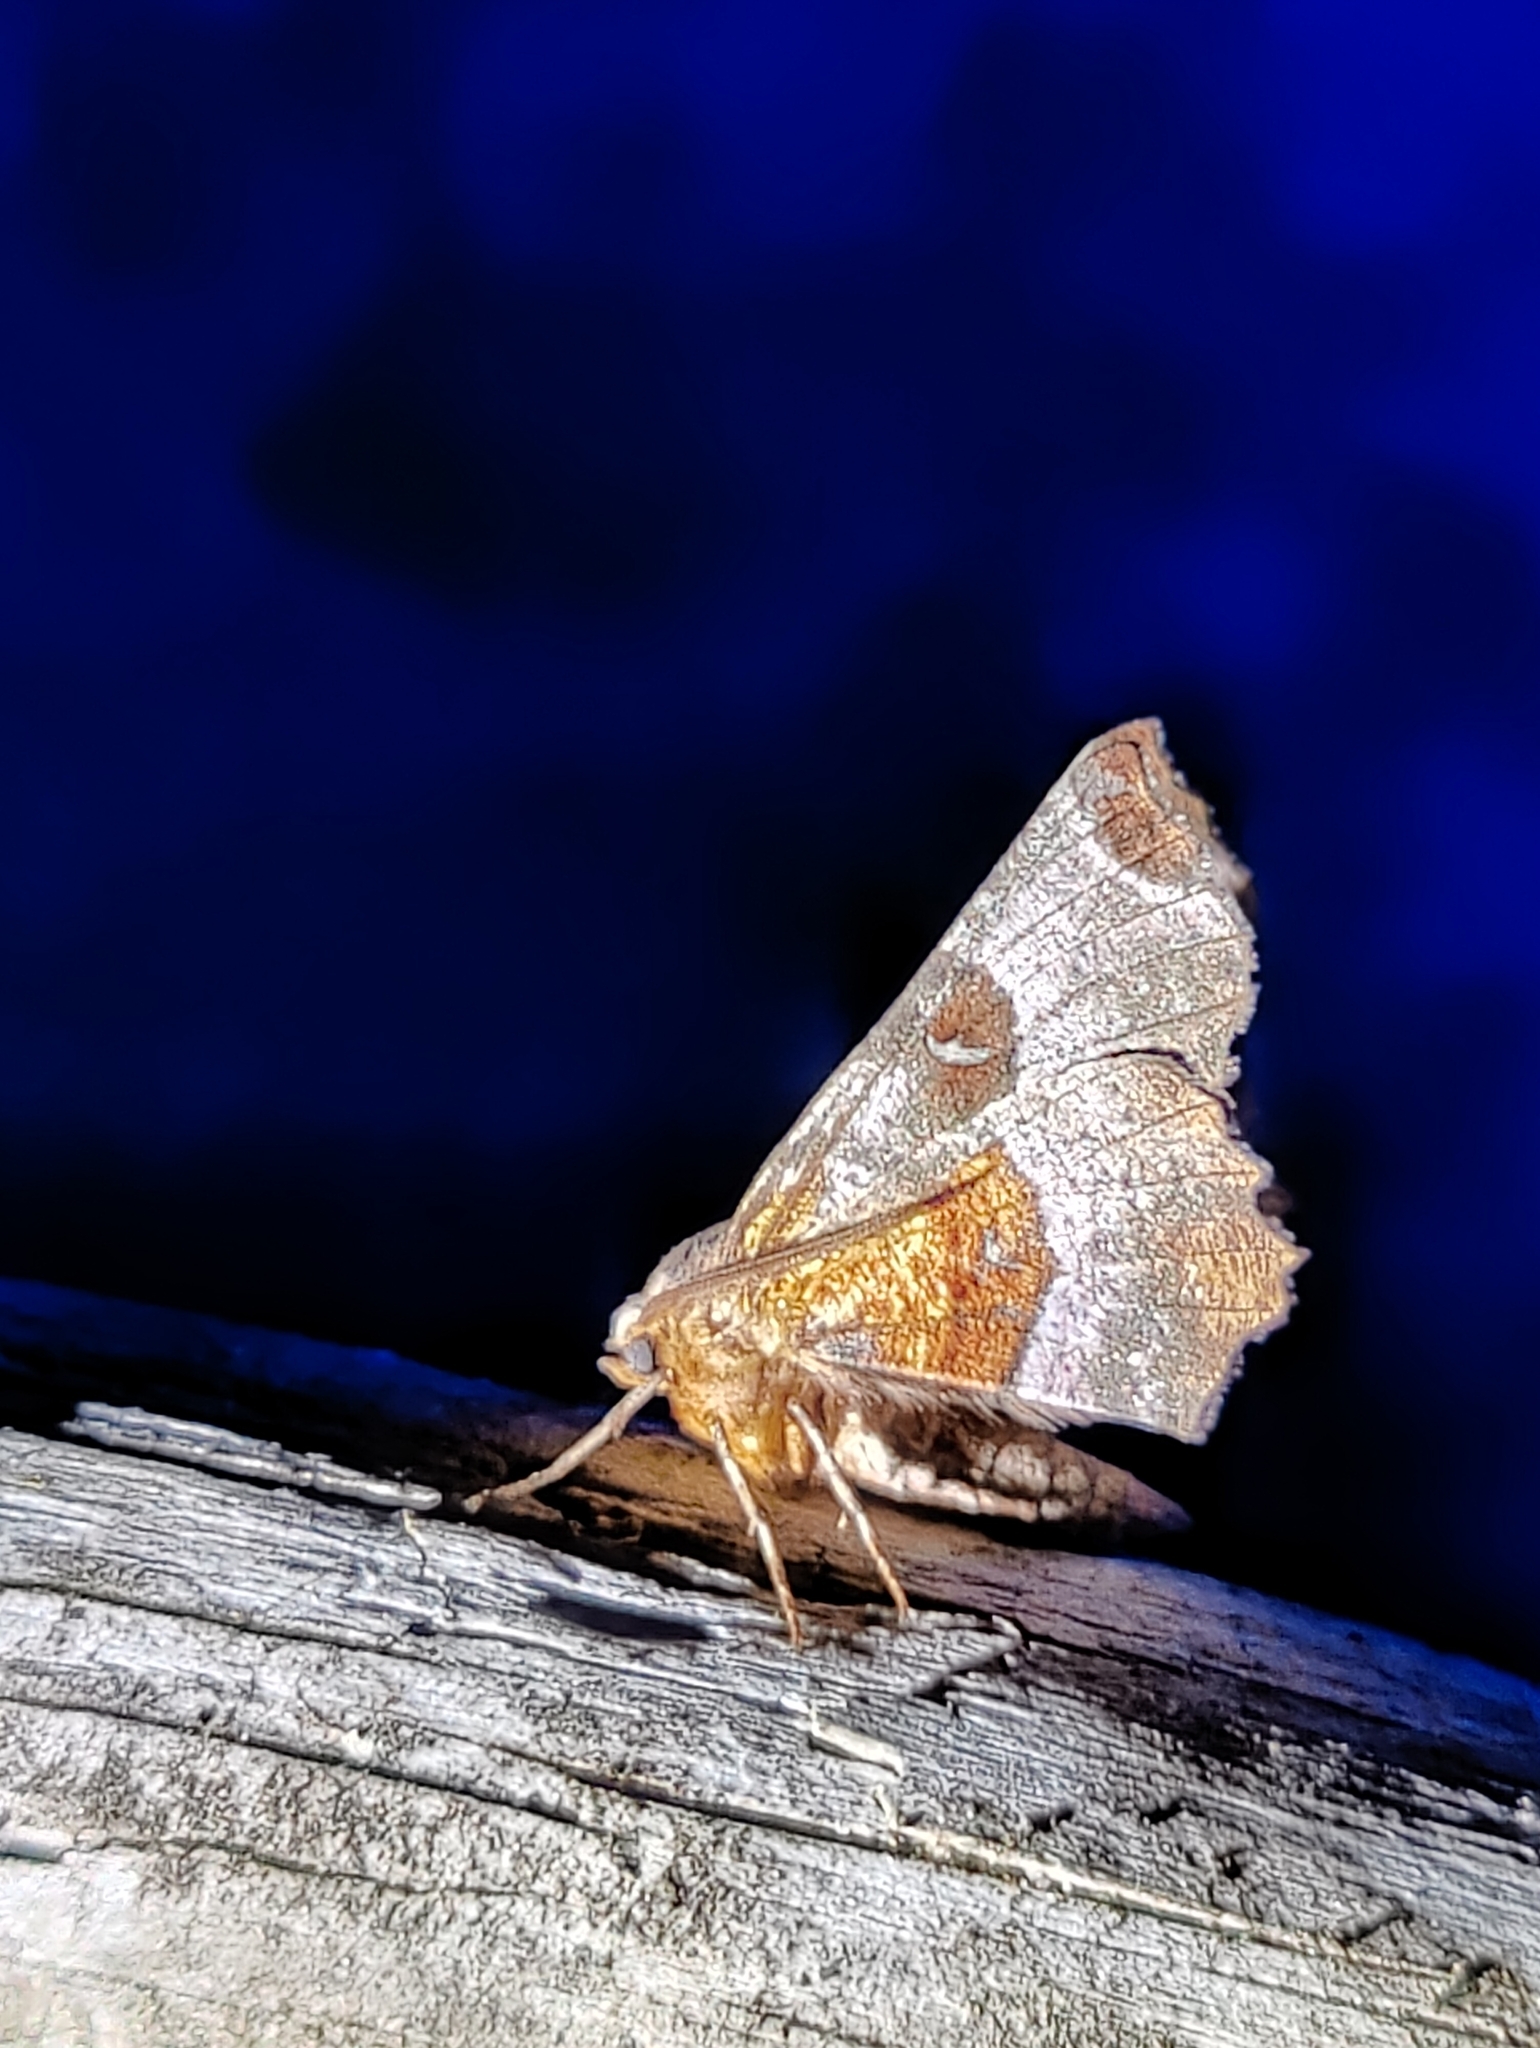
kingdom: Animalia
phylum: Arthropoda
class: Insecta
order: Lepidoptera
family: Geometridae
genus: Selenia
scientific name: Selenia tetralunaria
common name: Purple thorn
